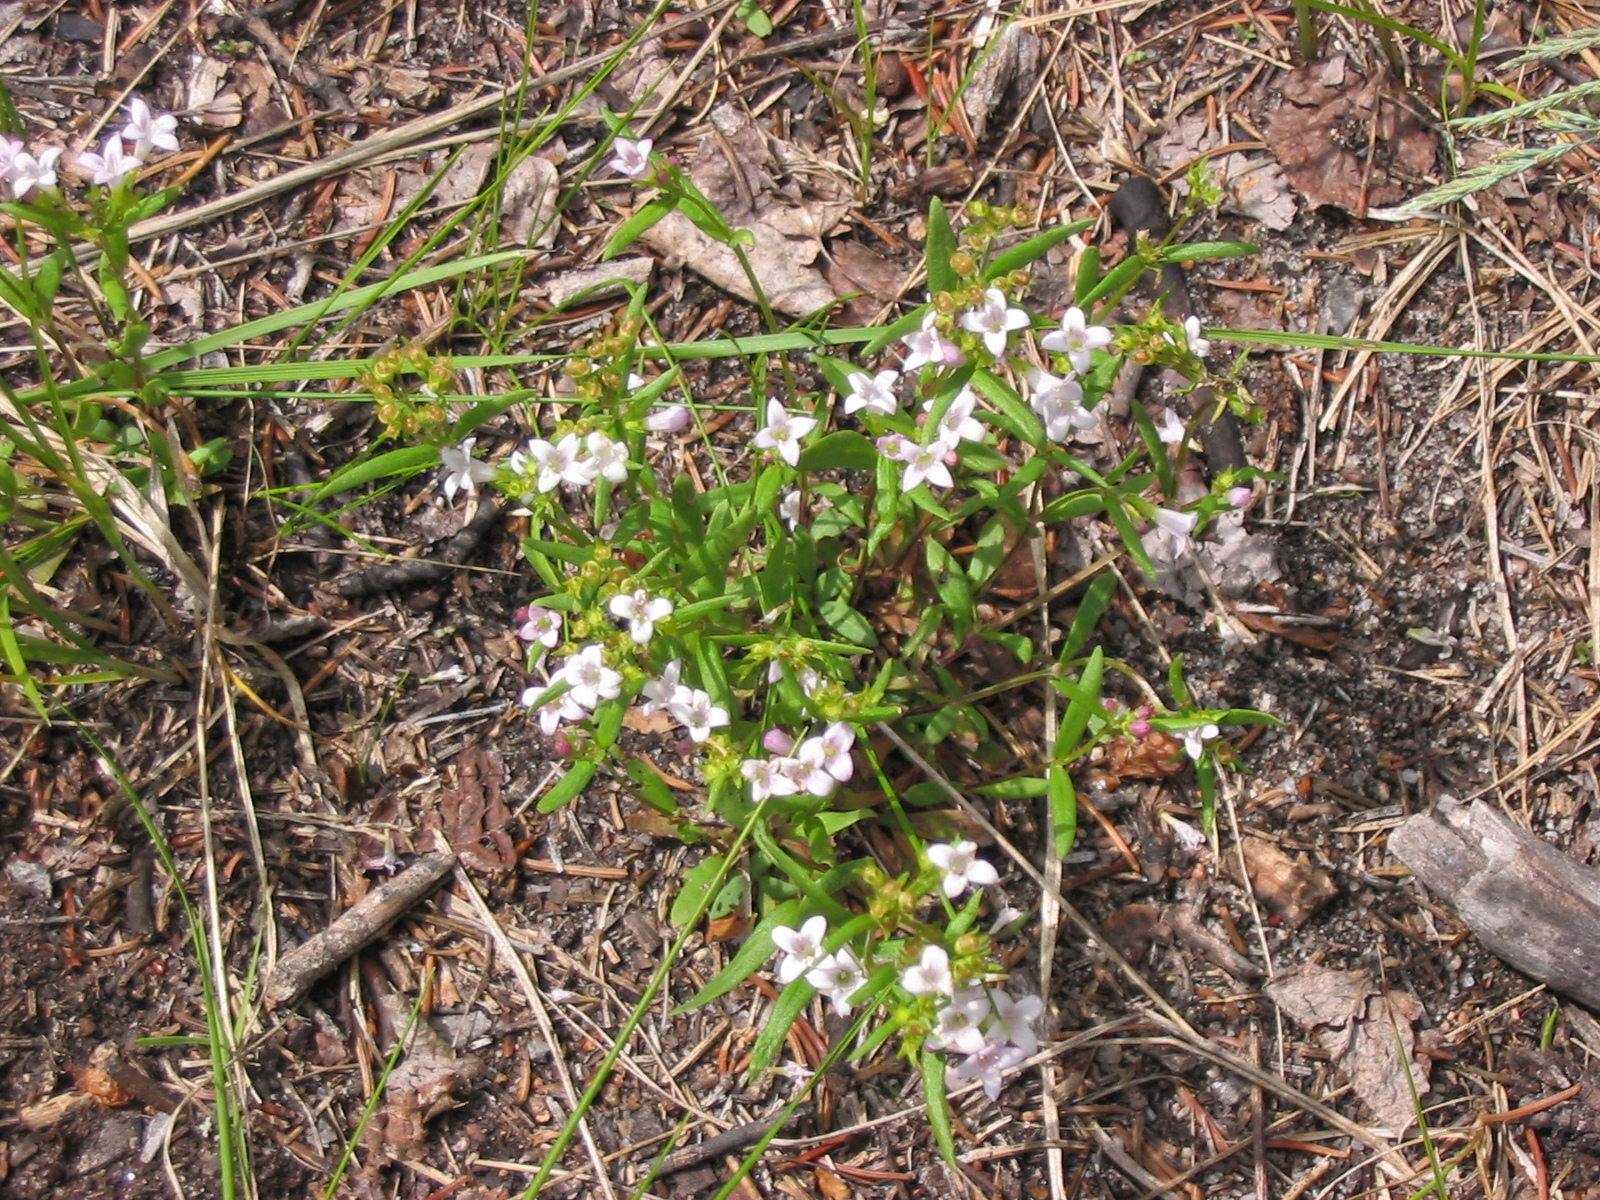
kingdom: Plantae
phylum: Tracheophyta
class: Magnoliopsida
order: Gentianales
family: Rubiaceae
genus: Houstonia
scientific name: Houstonia longifolia
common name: Long-leaved bluets
